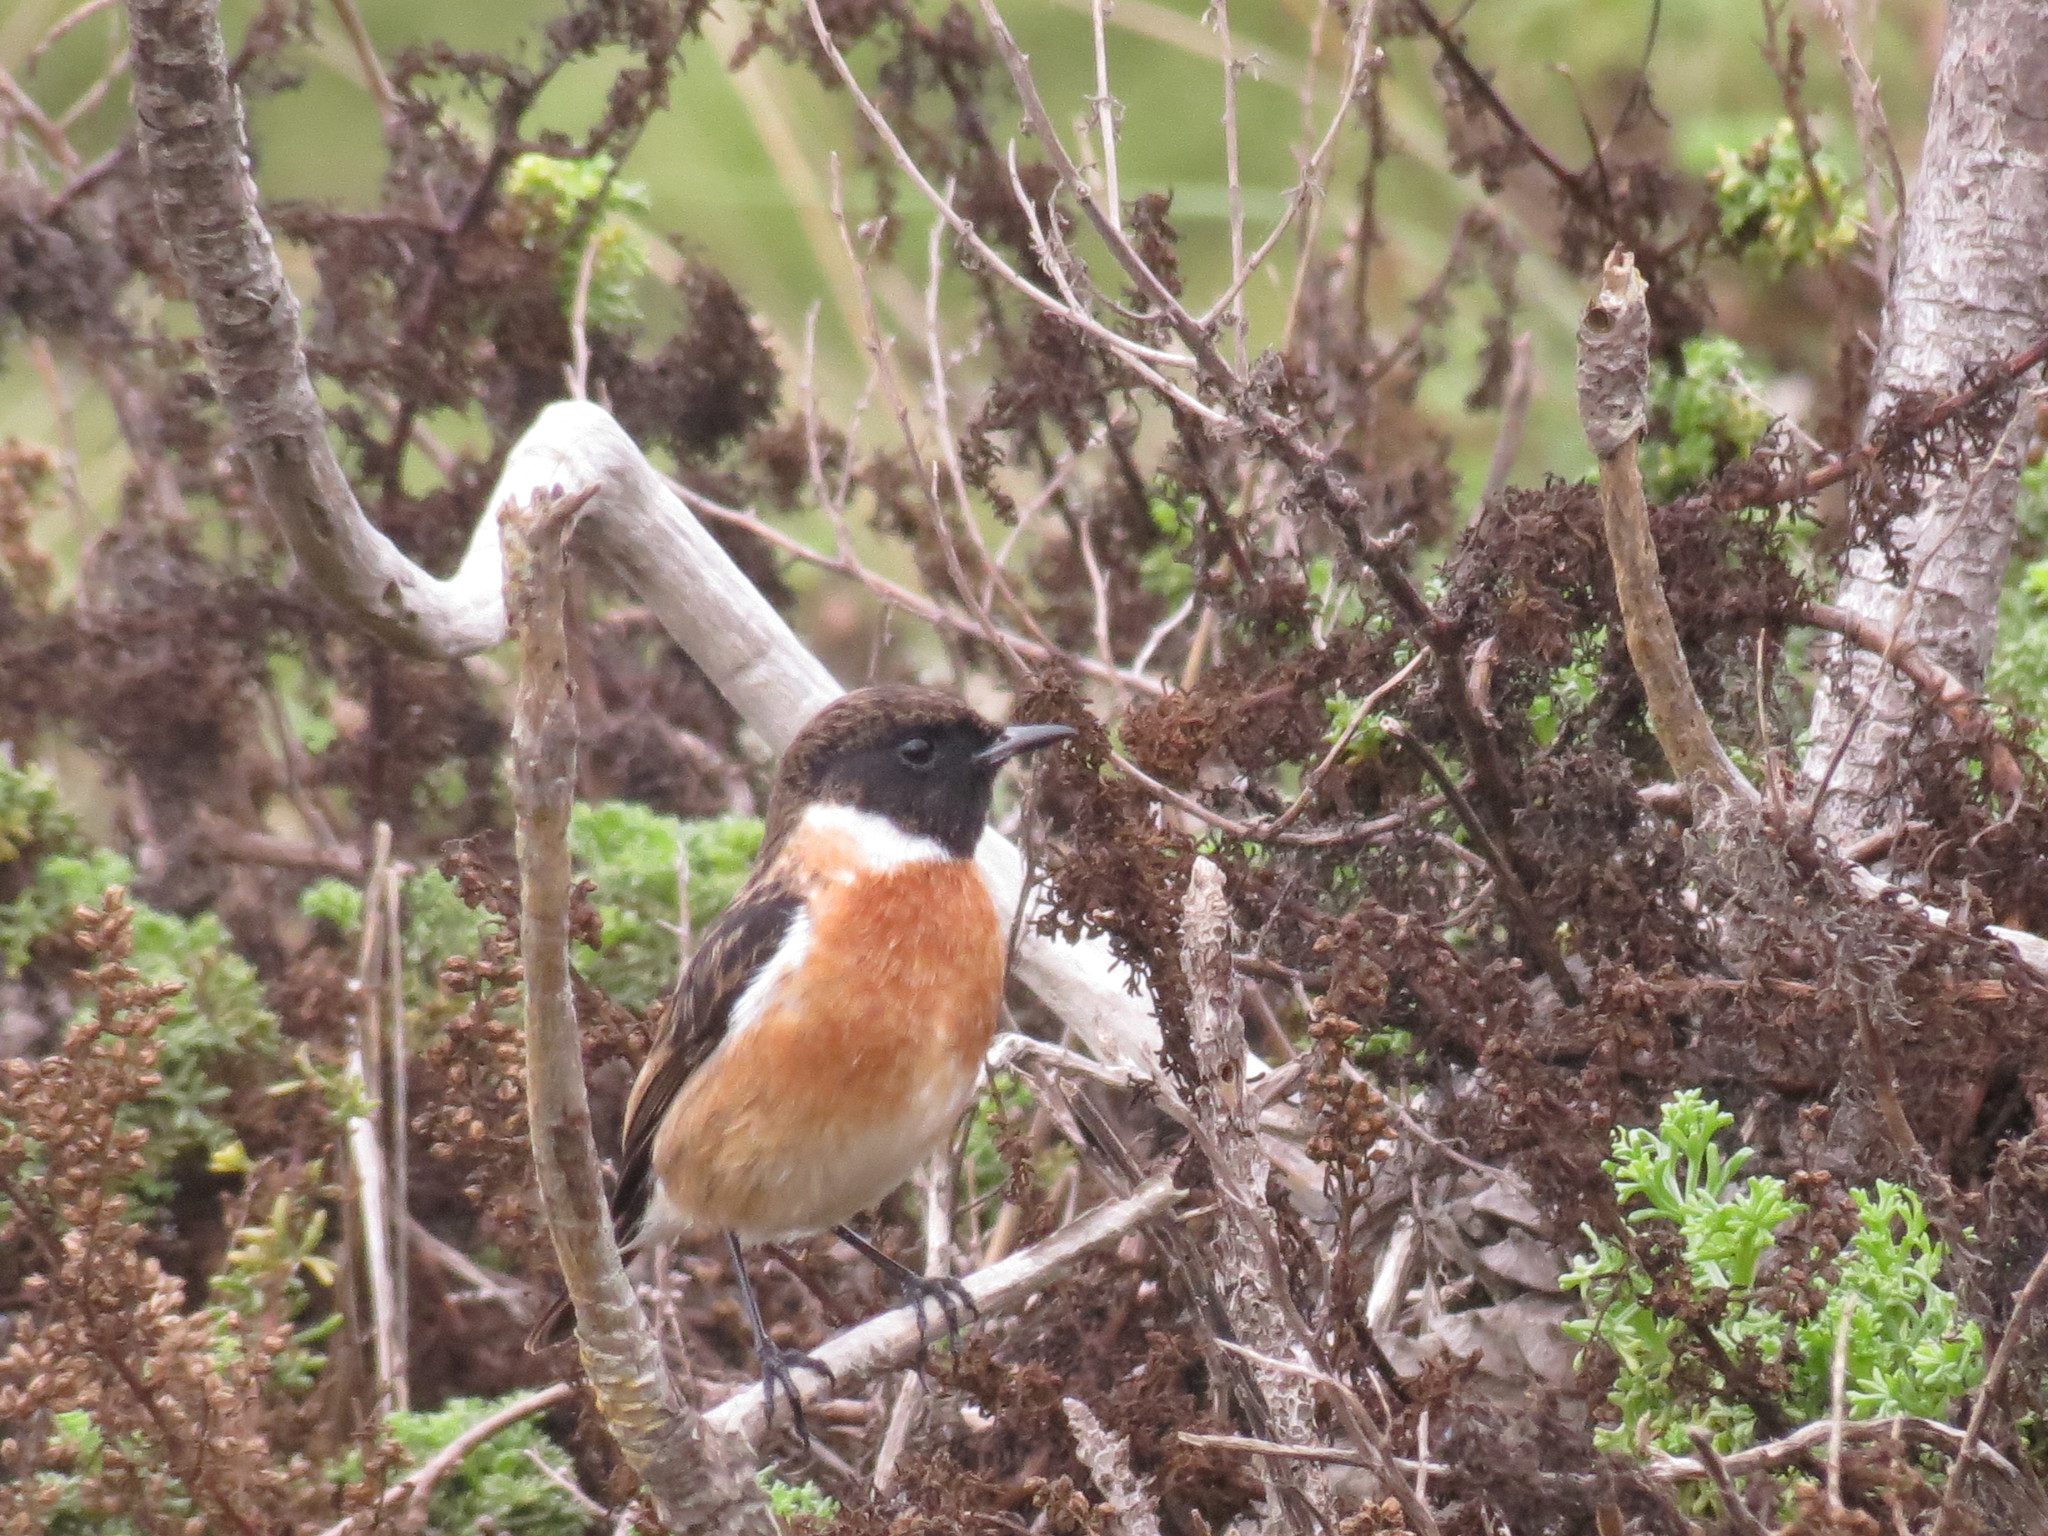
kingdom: Animalia
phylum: Chordata
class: Aves
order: Passeriformes
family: Muscicapidae
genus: Saxicola
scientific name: Saxicola rubicola
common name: European stonechat
